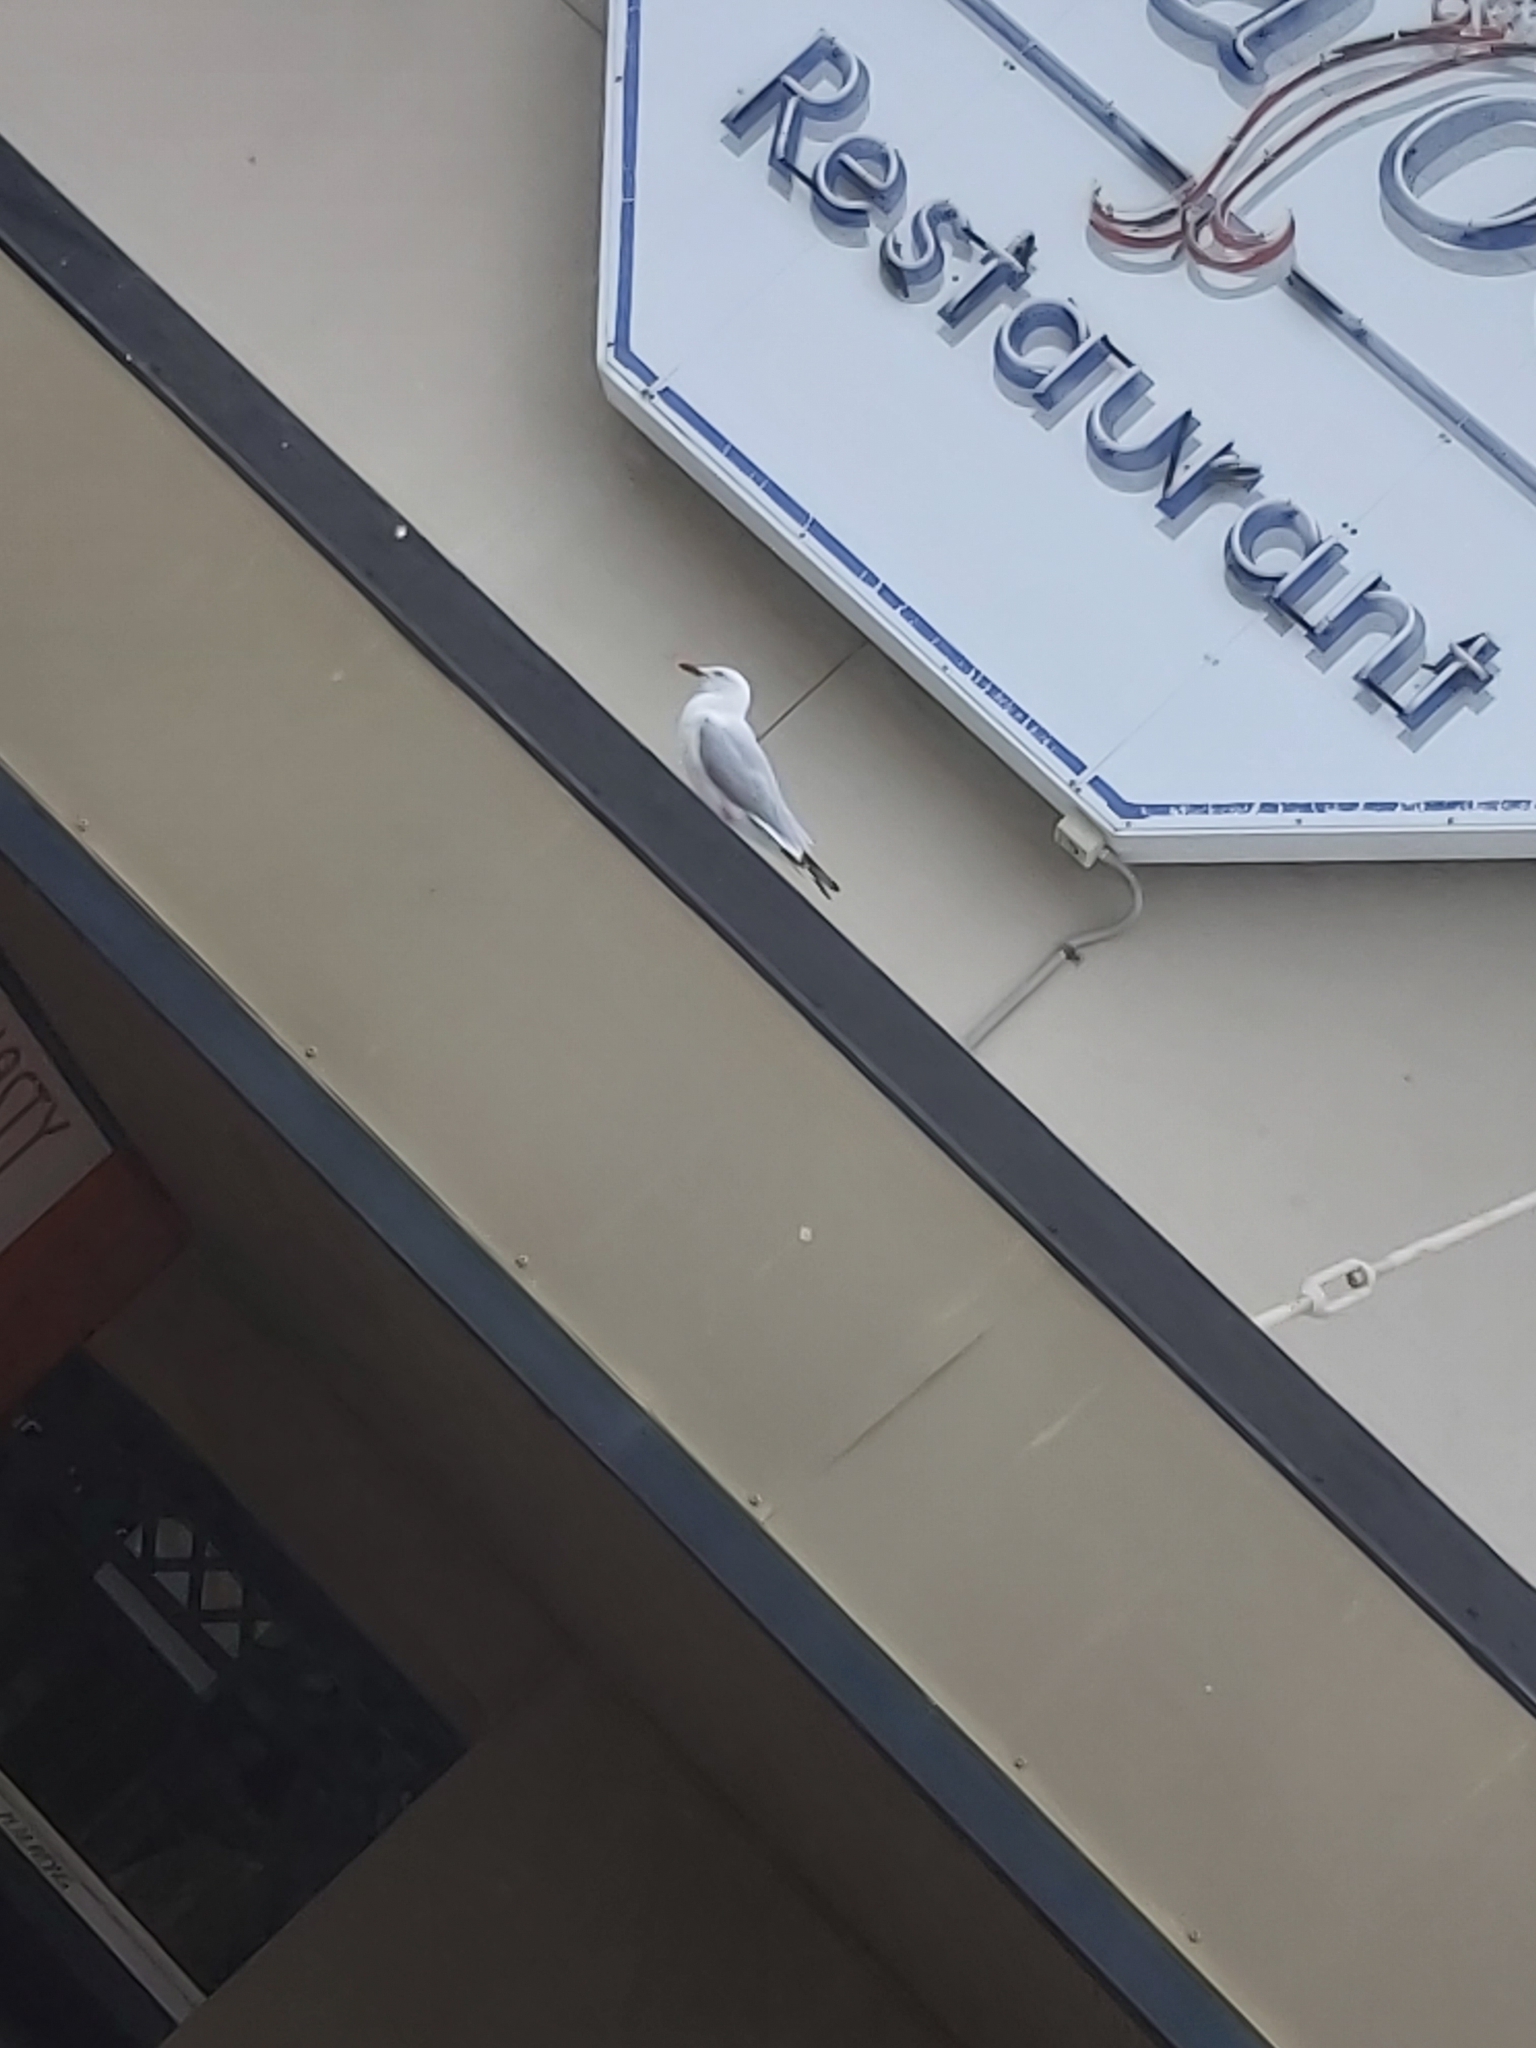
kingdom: Animalia
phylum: Chordata
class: Aves
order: Charadriiformes
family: Laridae
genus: Chroicocephalus
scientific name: Chroicocephalus novaehollandiae
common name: Silver gull
